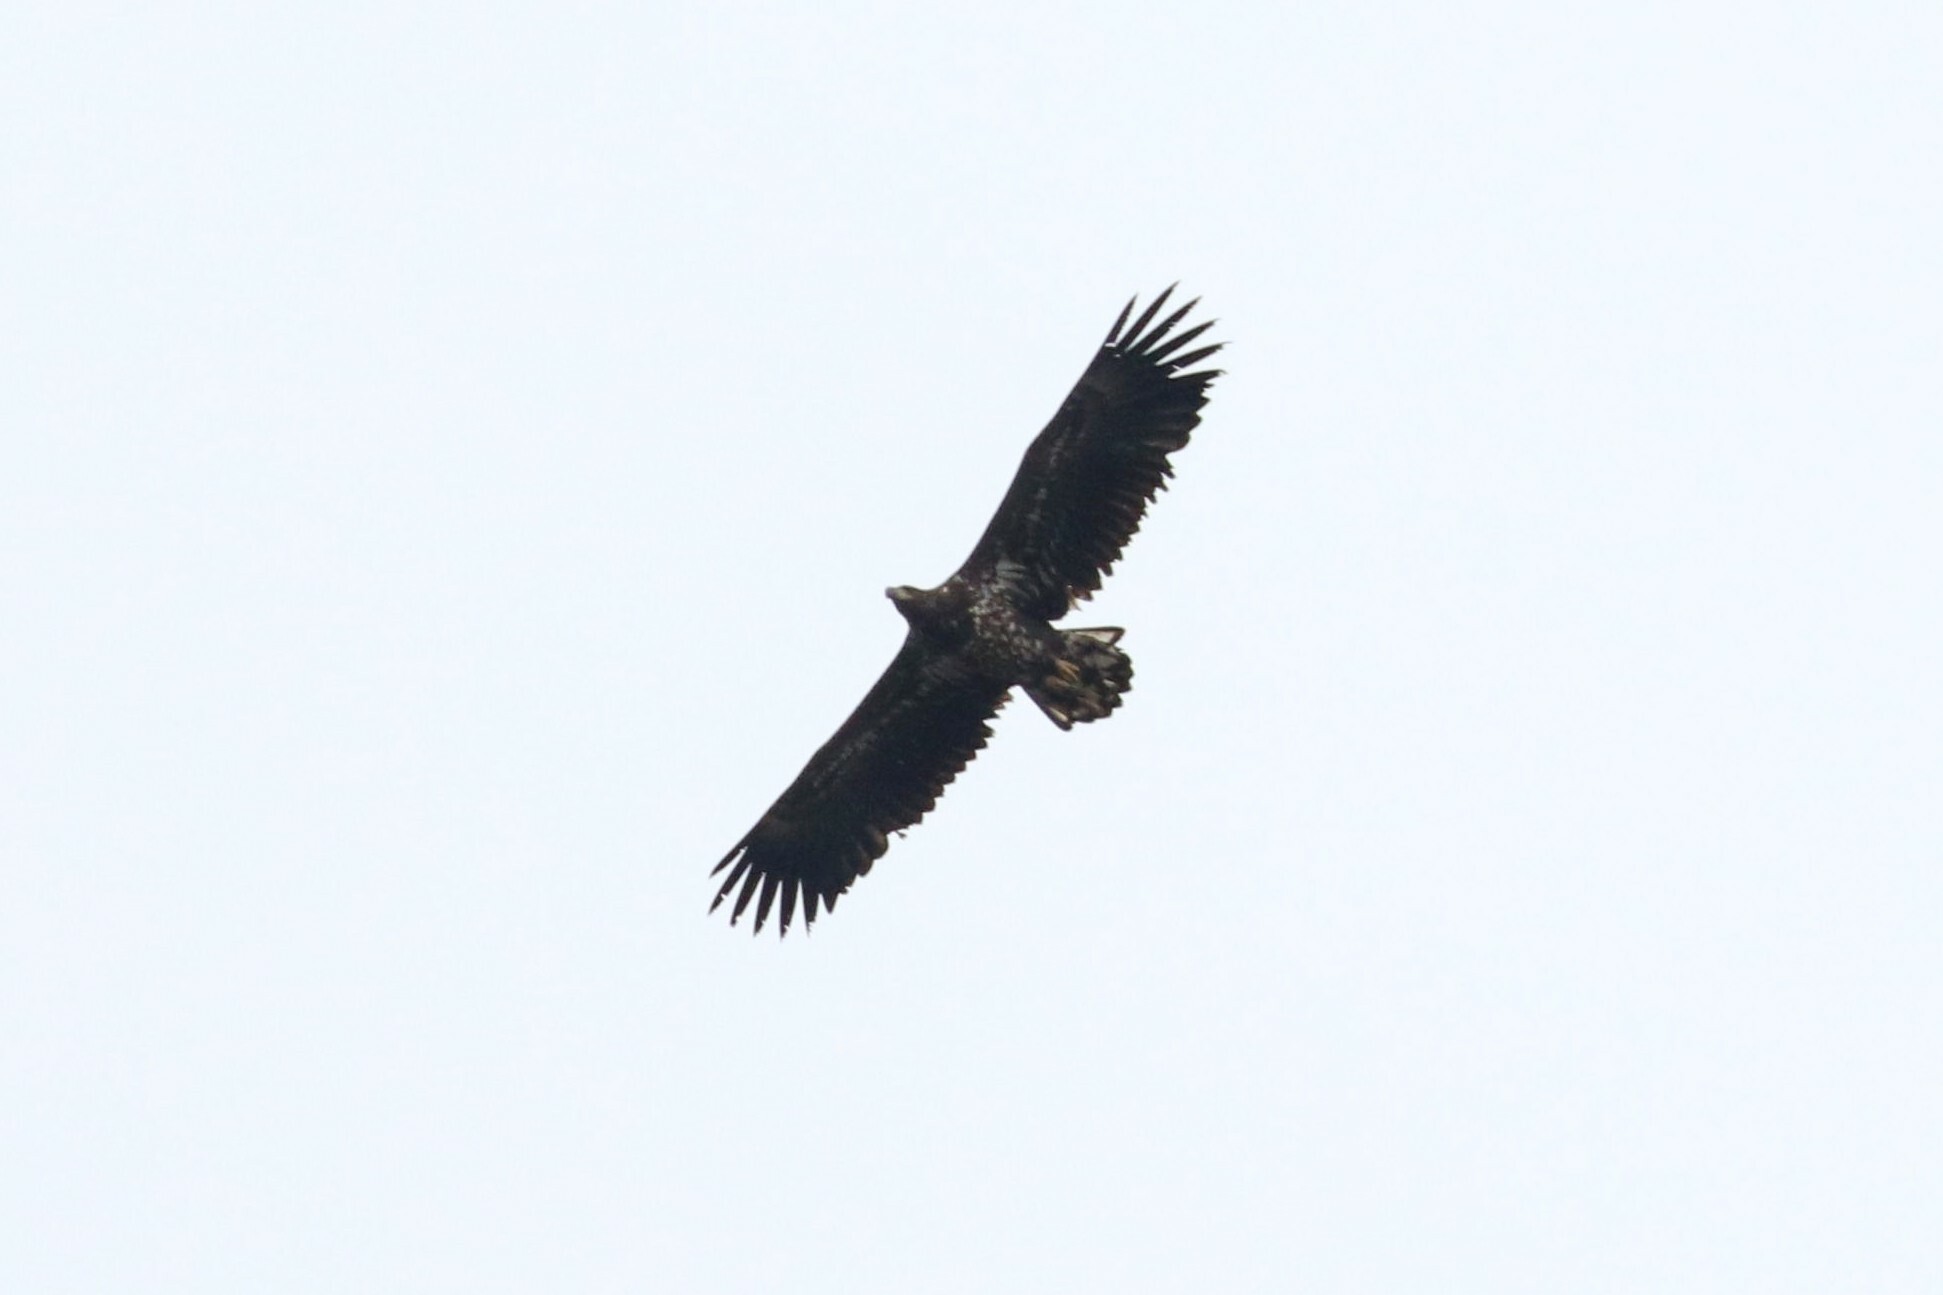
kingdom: Animalia
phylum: Chordata
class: Aves
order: Accipitriformes
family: Accipitridae
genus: Haliaeetus
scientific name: Haliaeetus albicilla
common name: White-tailed eagle
